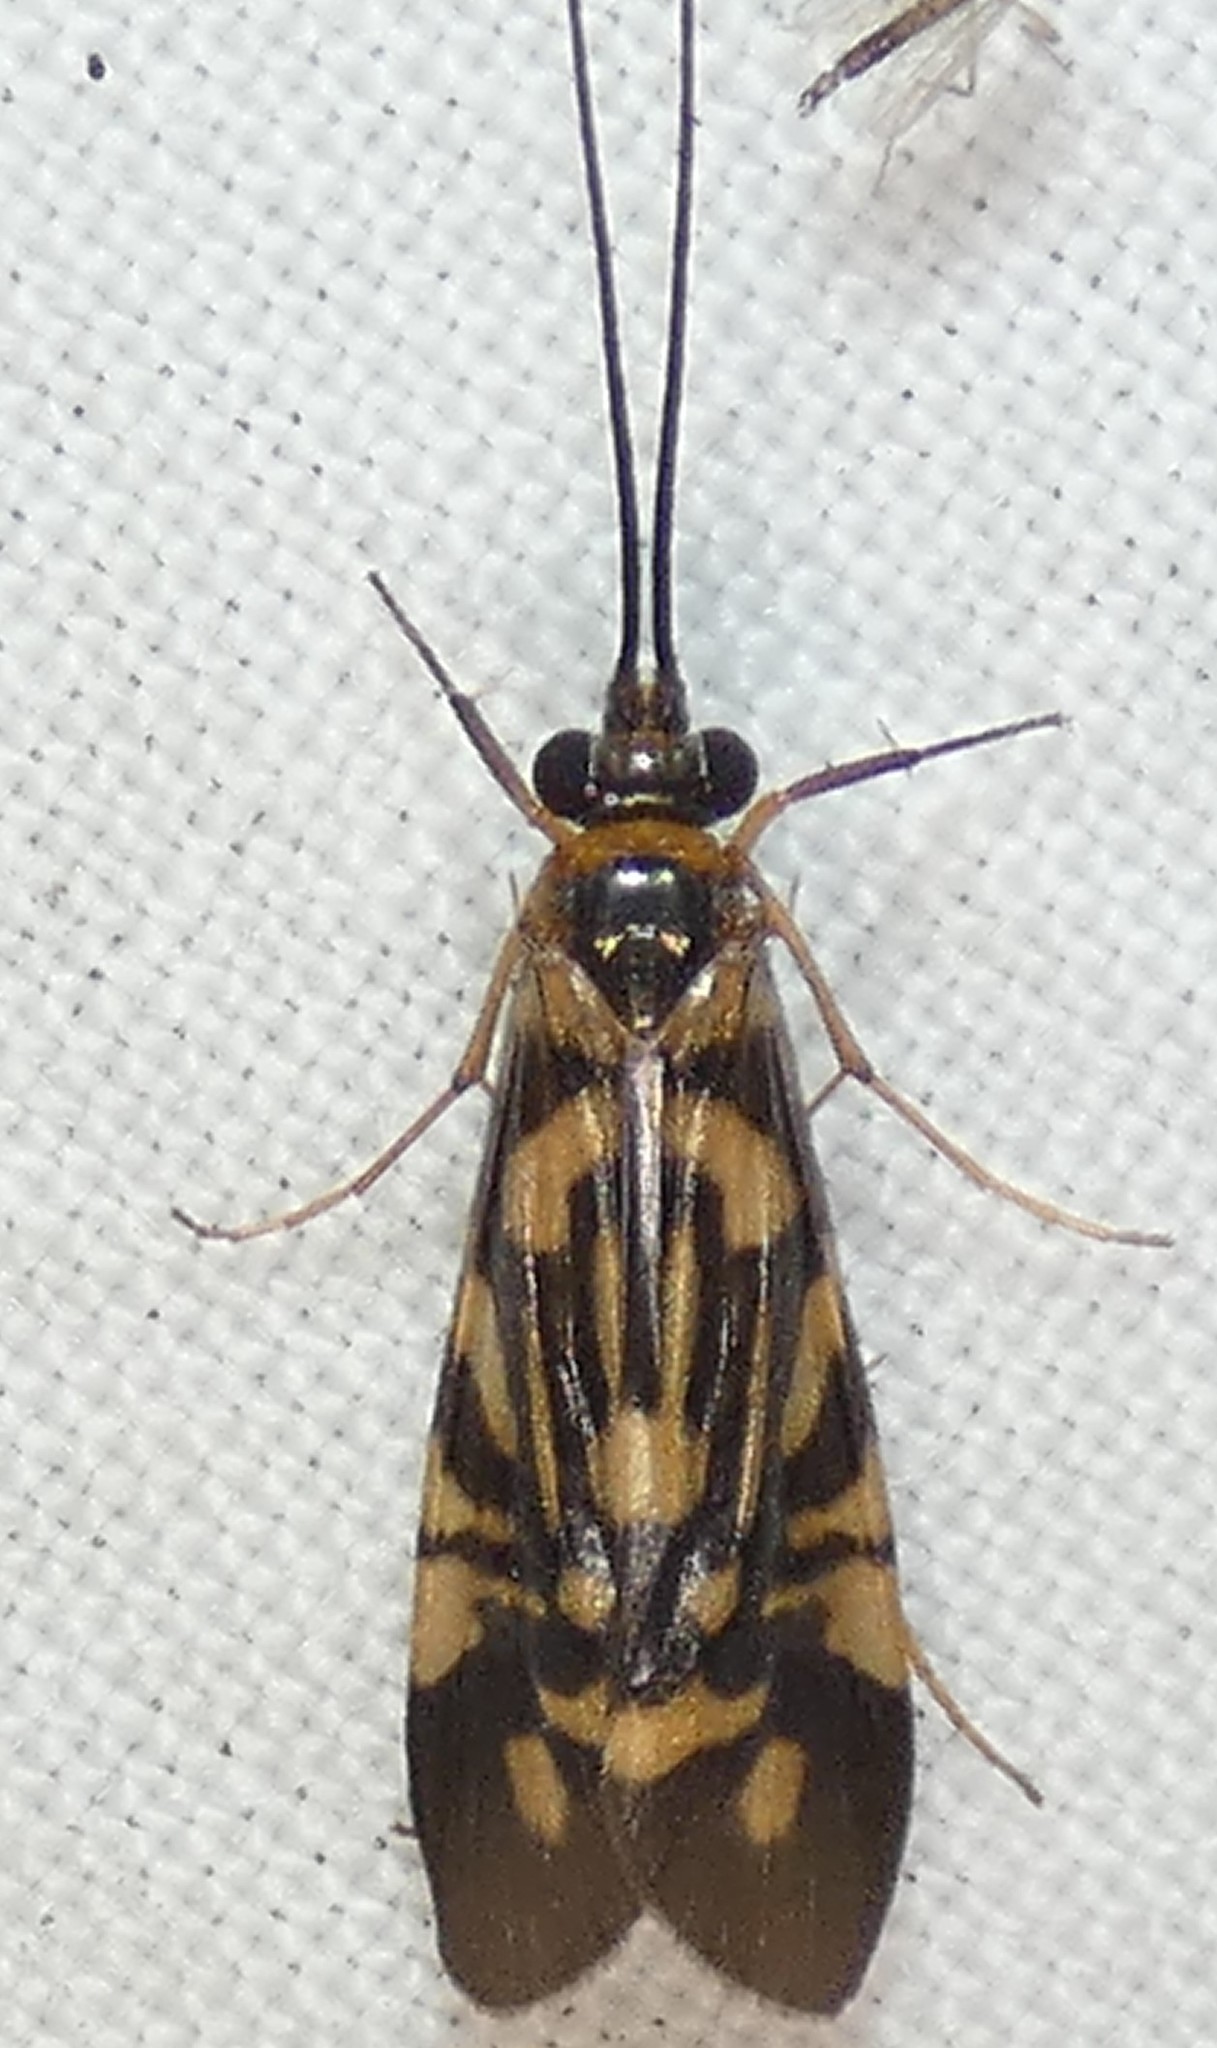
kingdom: Animalia
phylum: Arthropoda
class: Insecta
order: Trichoptera
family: Hydropsychidae
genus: Macrostemum
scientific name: Macrostemum carolina
